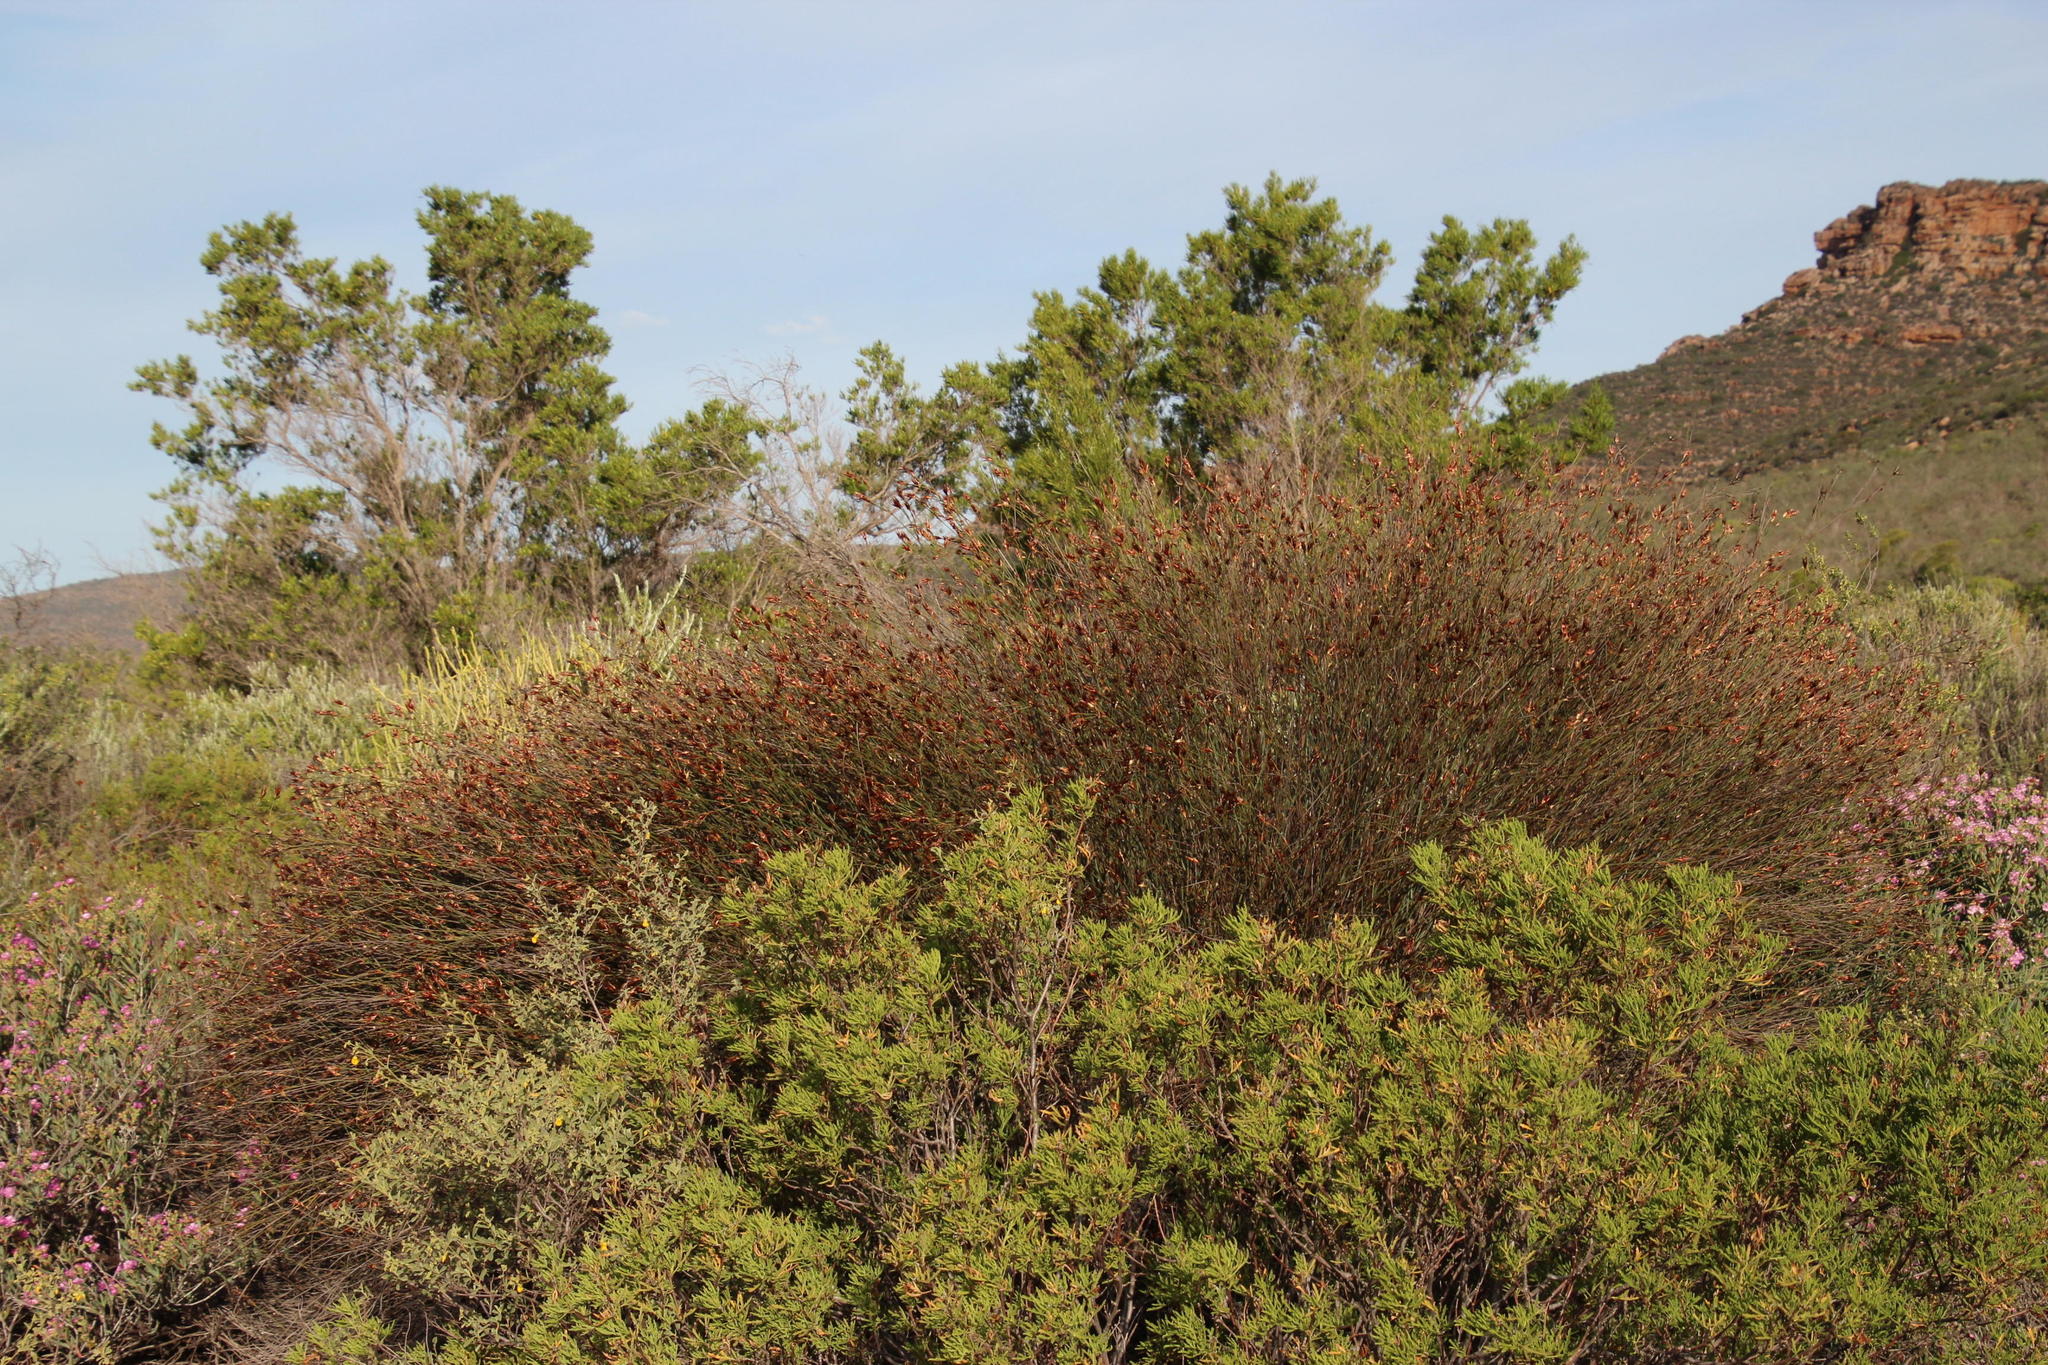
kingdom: Plantae
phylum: Tracheophyta
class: Liliopsida
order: Poales
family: Restionaceae
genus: Willdenowia
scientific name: Willdenowia incurvata
